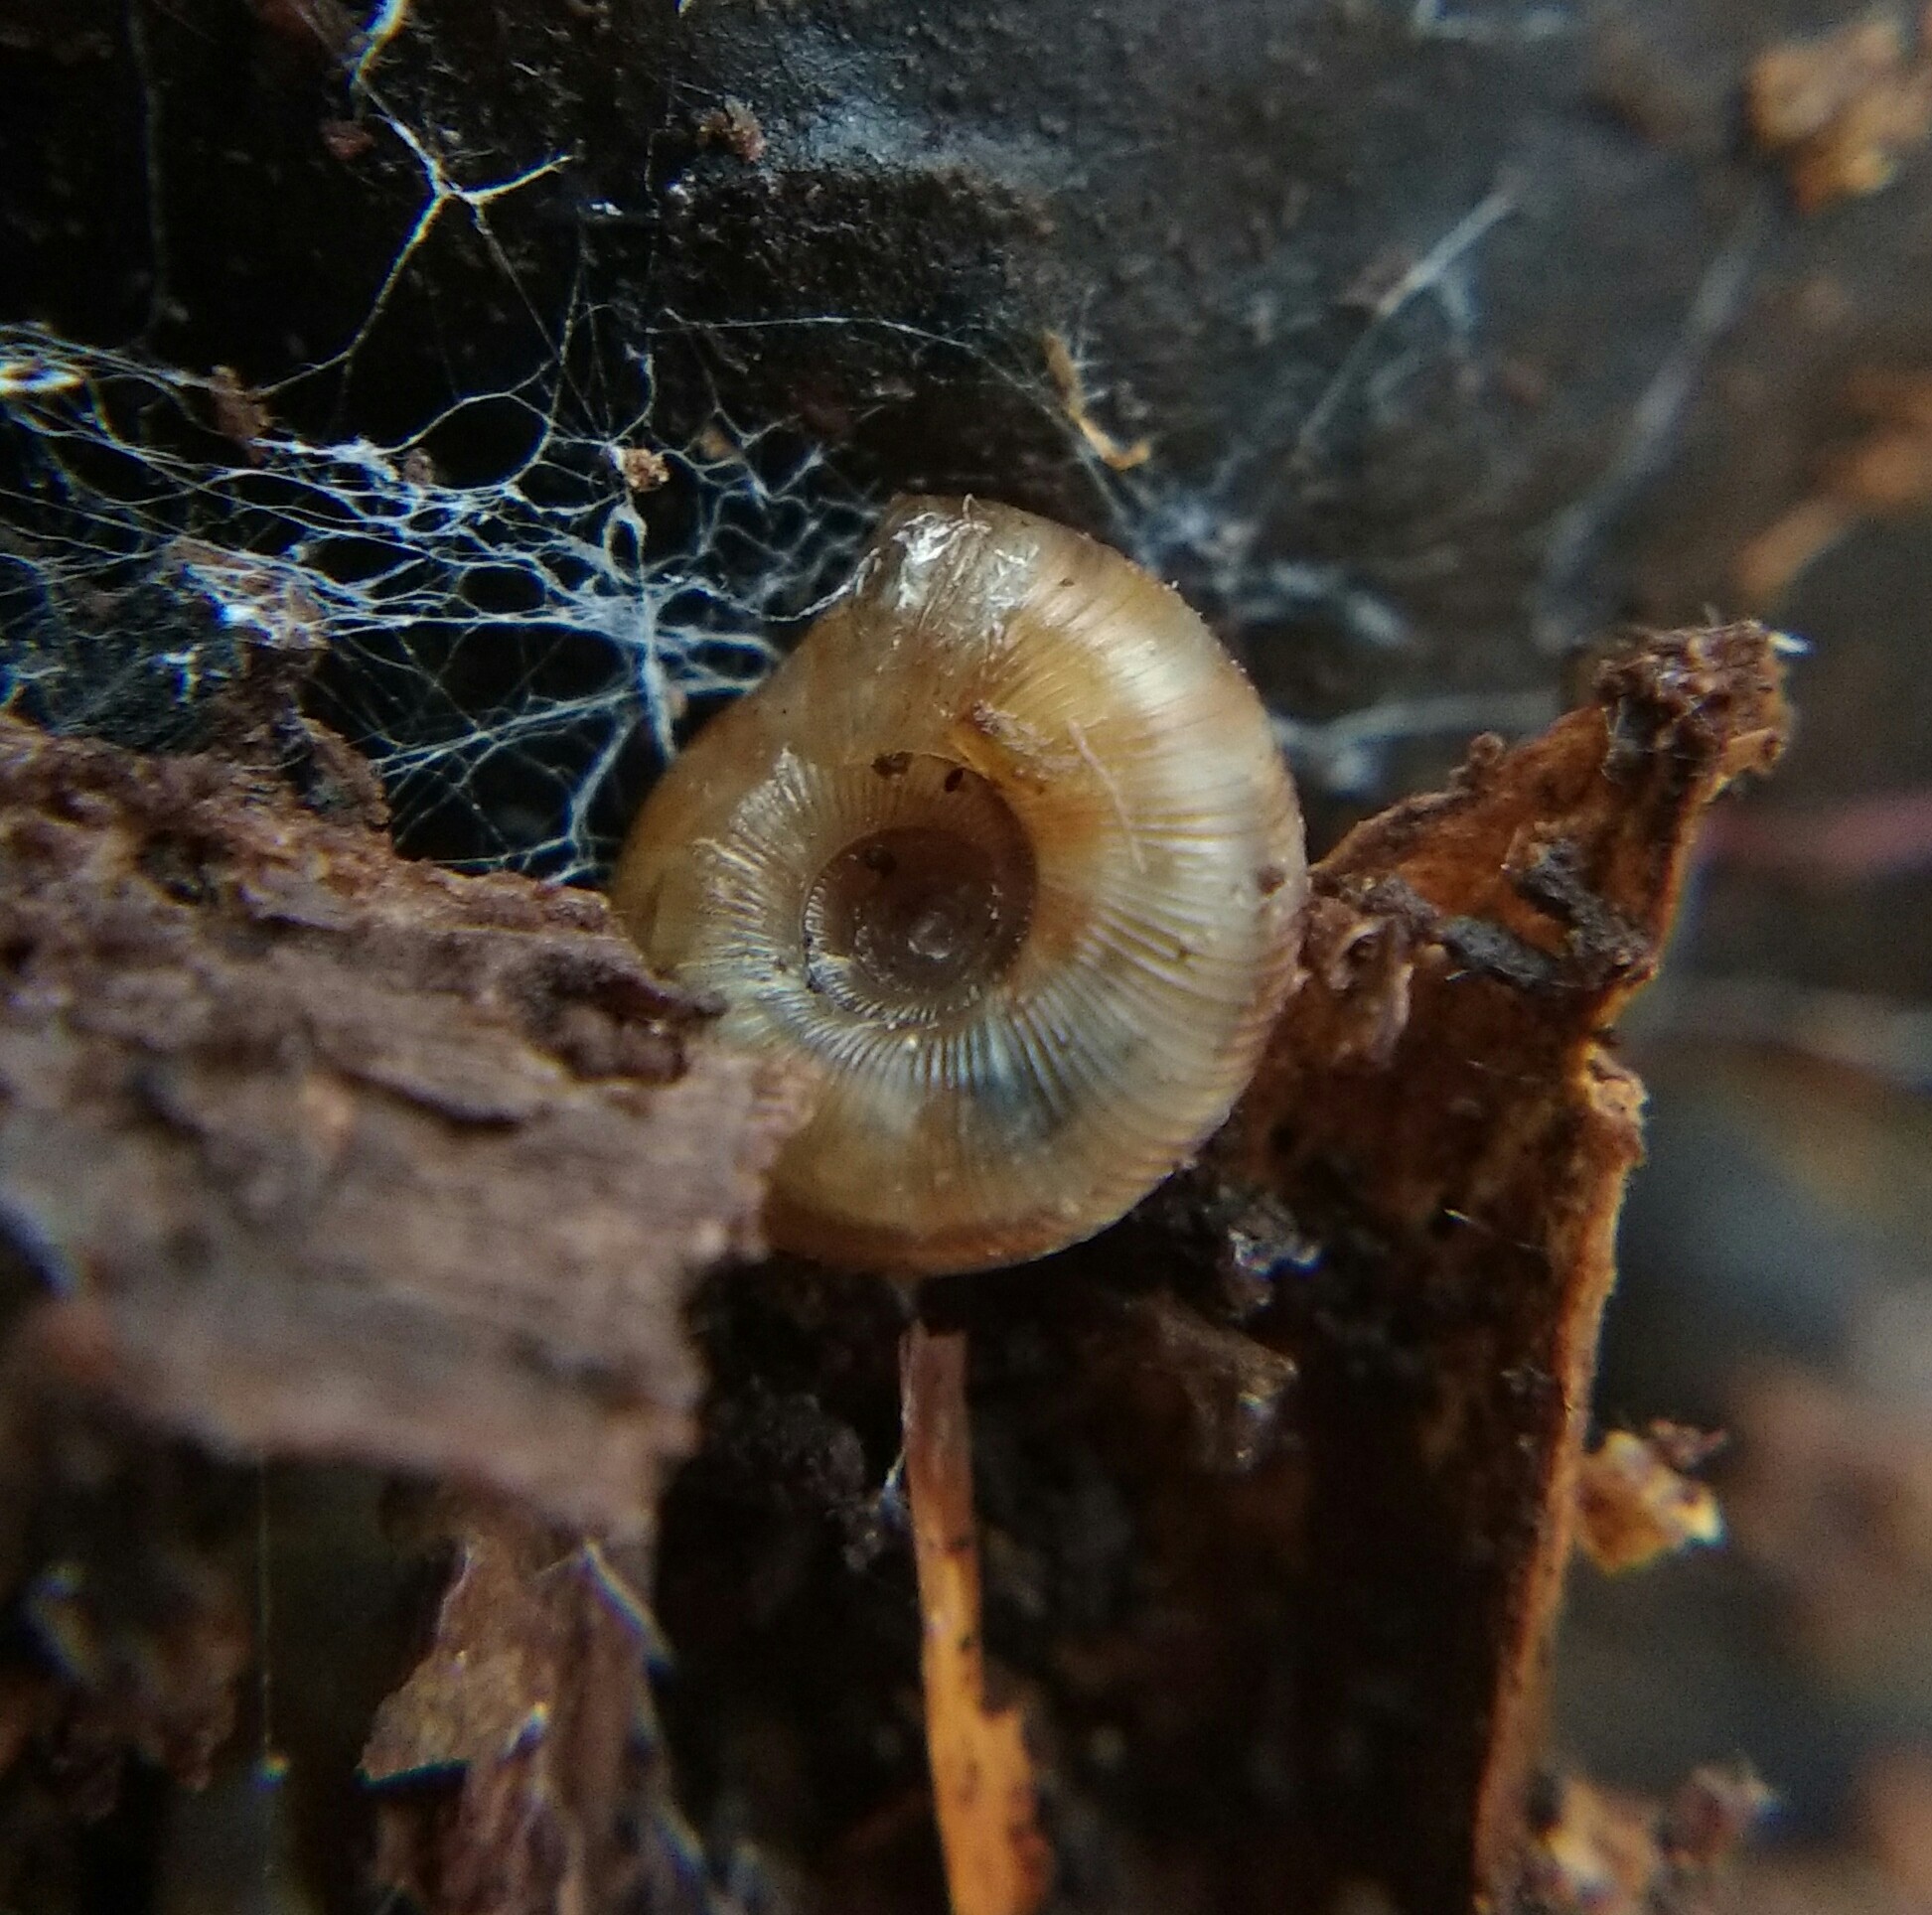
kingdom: Animalia
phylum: Mollusca
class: Gastropoda
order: Stylommatophora
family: Discidae
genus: Discus
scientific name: Discus rotundatus
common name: Rounded snail
